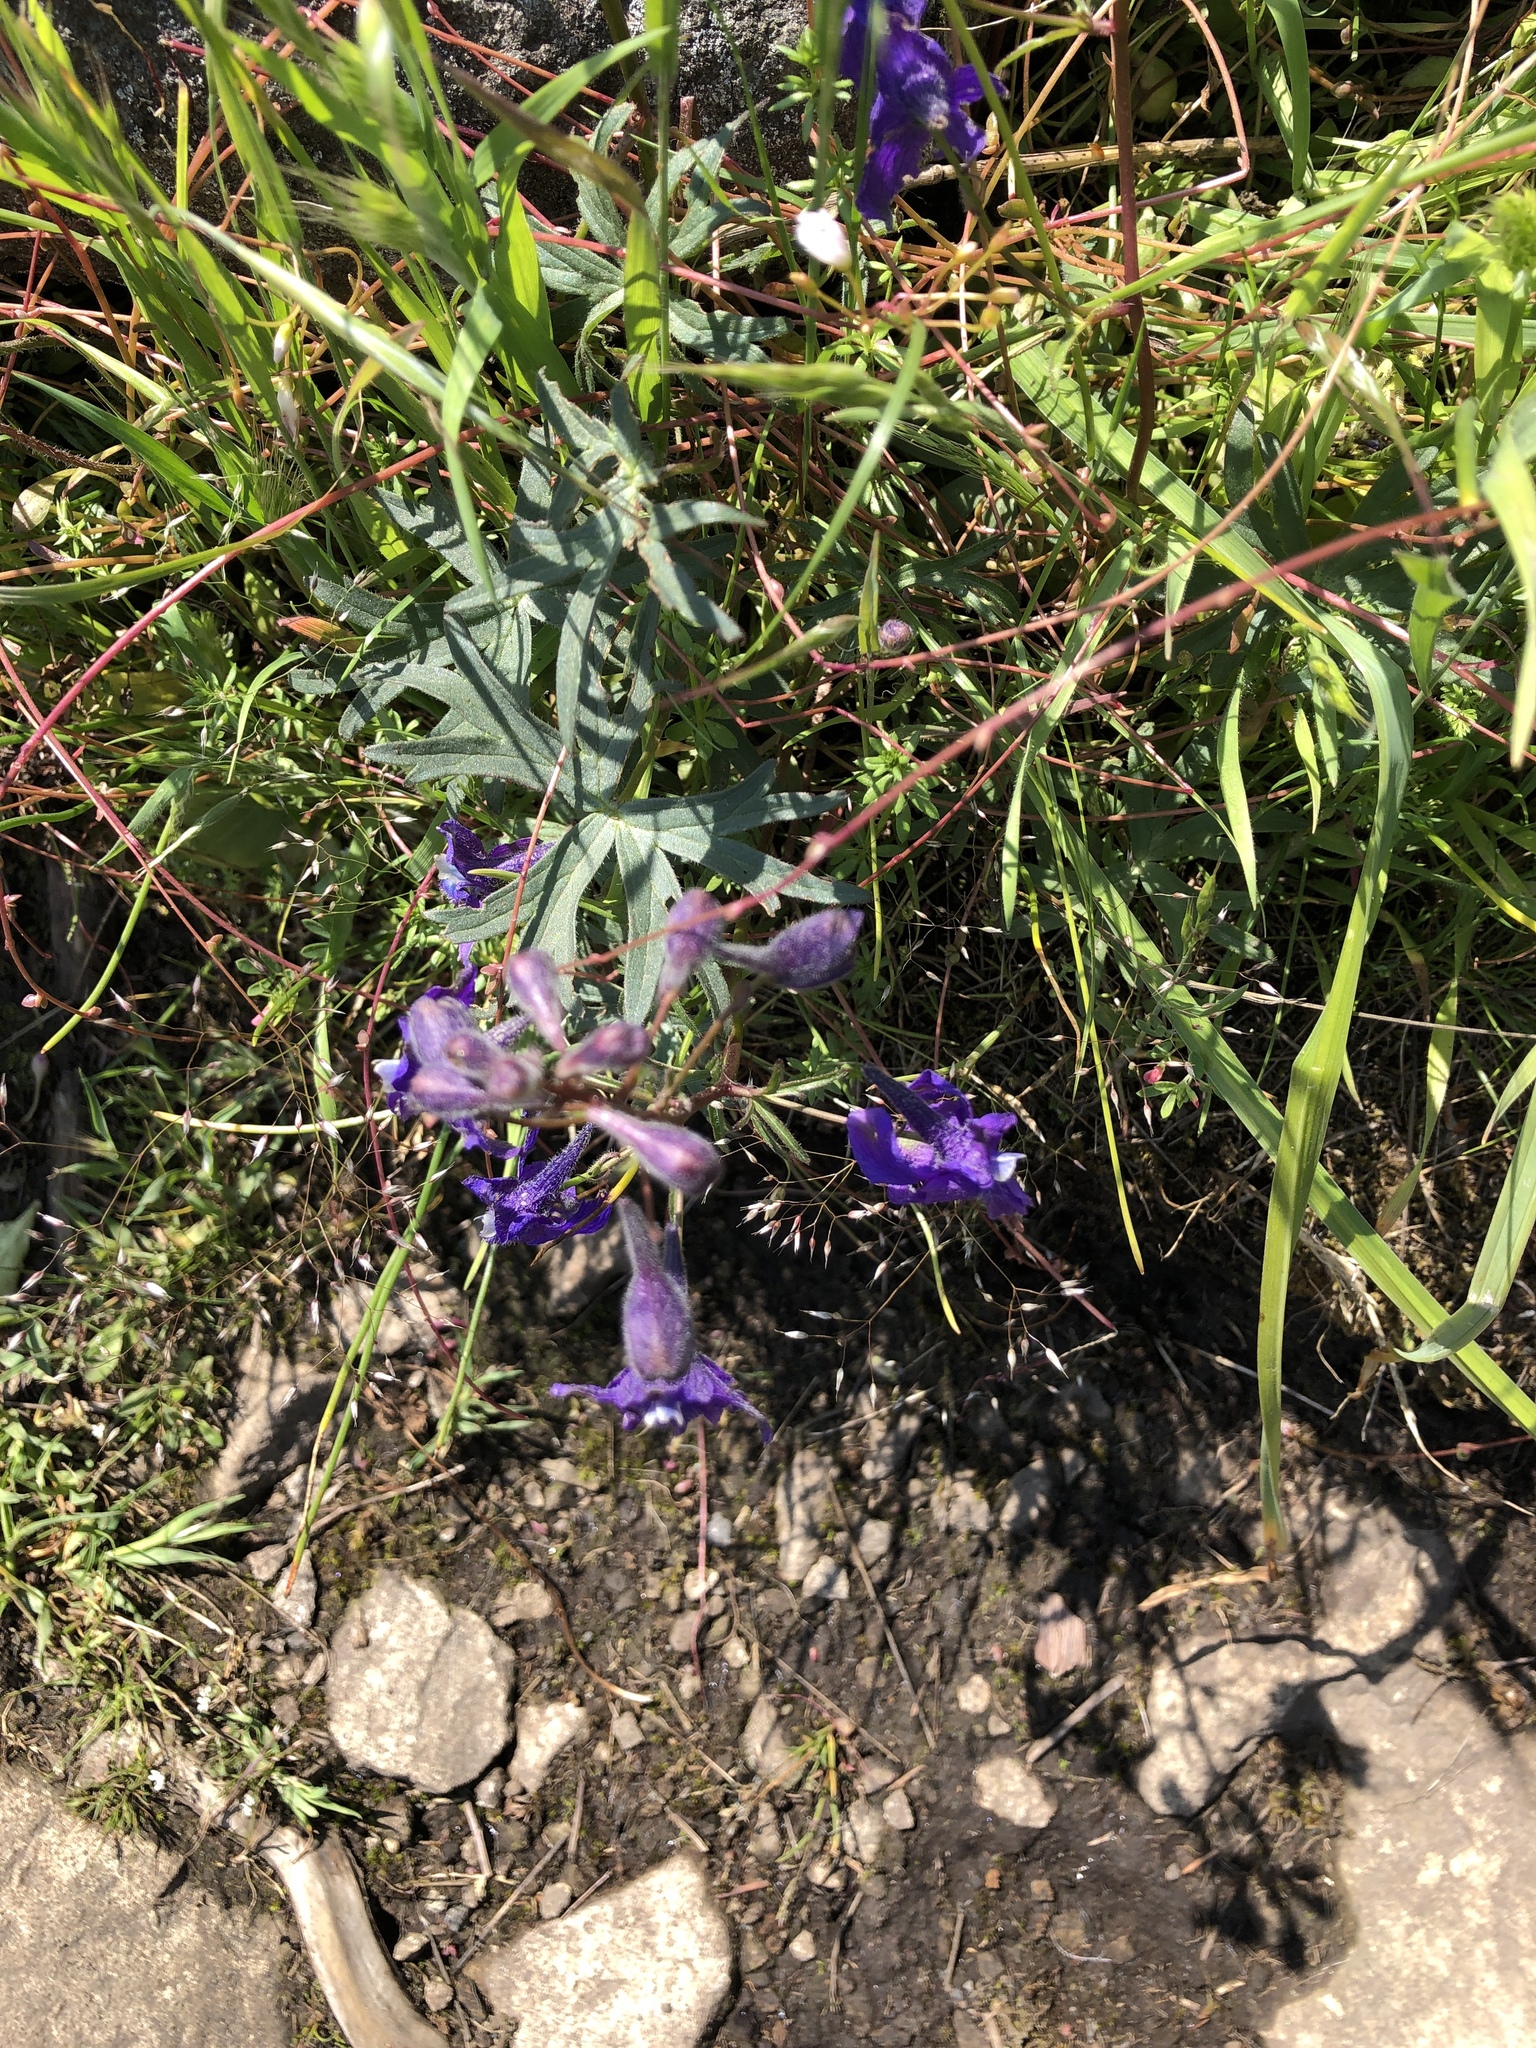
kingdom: Plantae
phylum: Tracheophyta
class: Magnoliopsida
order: Ranunculales
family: Ranunculaceae
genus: Delphinium
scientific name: Delphinium menziesii
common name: Menzies's larkspur
